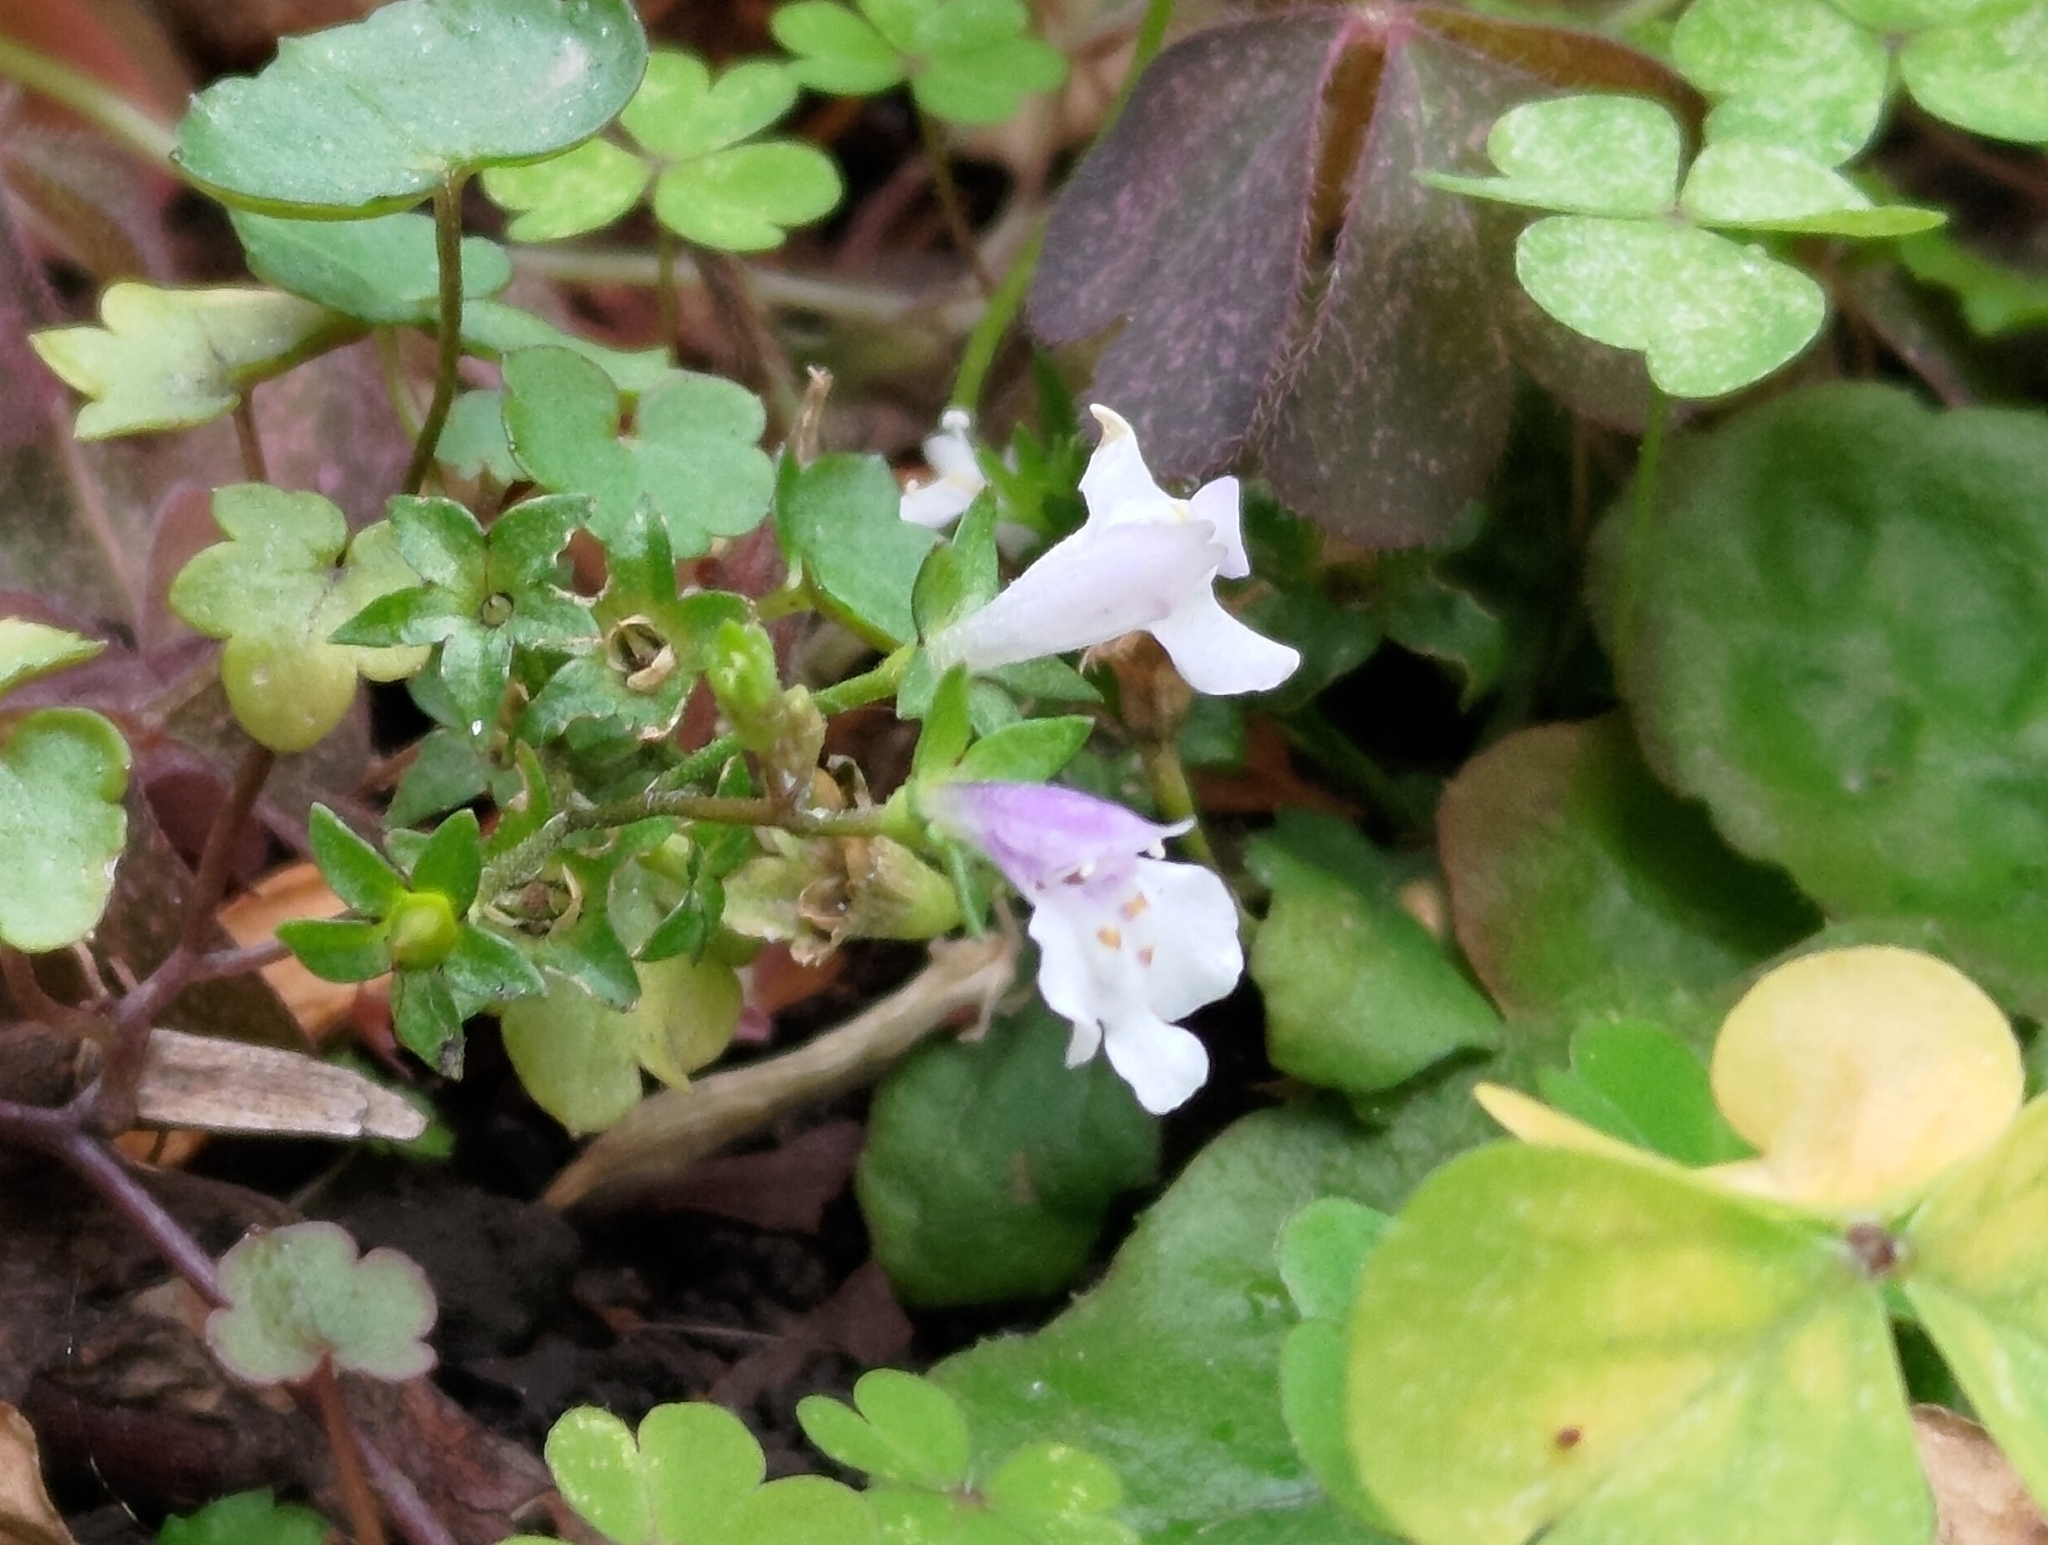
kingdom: Plantae
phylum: Tracheophyta
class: Magnoliopsida
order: Lamiales
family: Mazaceae
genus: Mazus
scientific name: Mazus pumilus
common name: Japanese mazus
